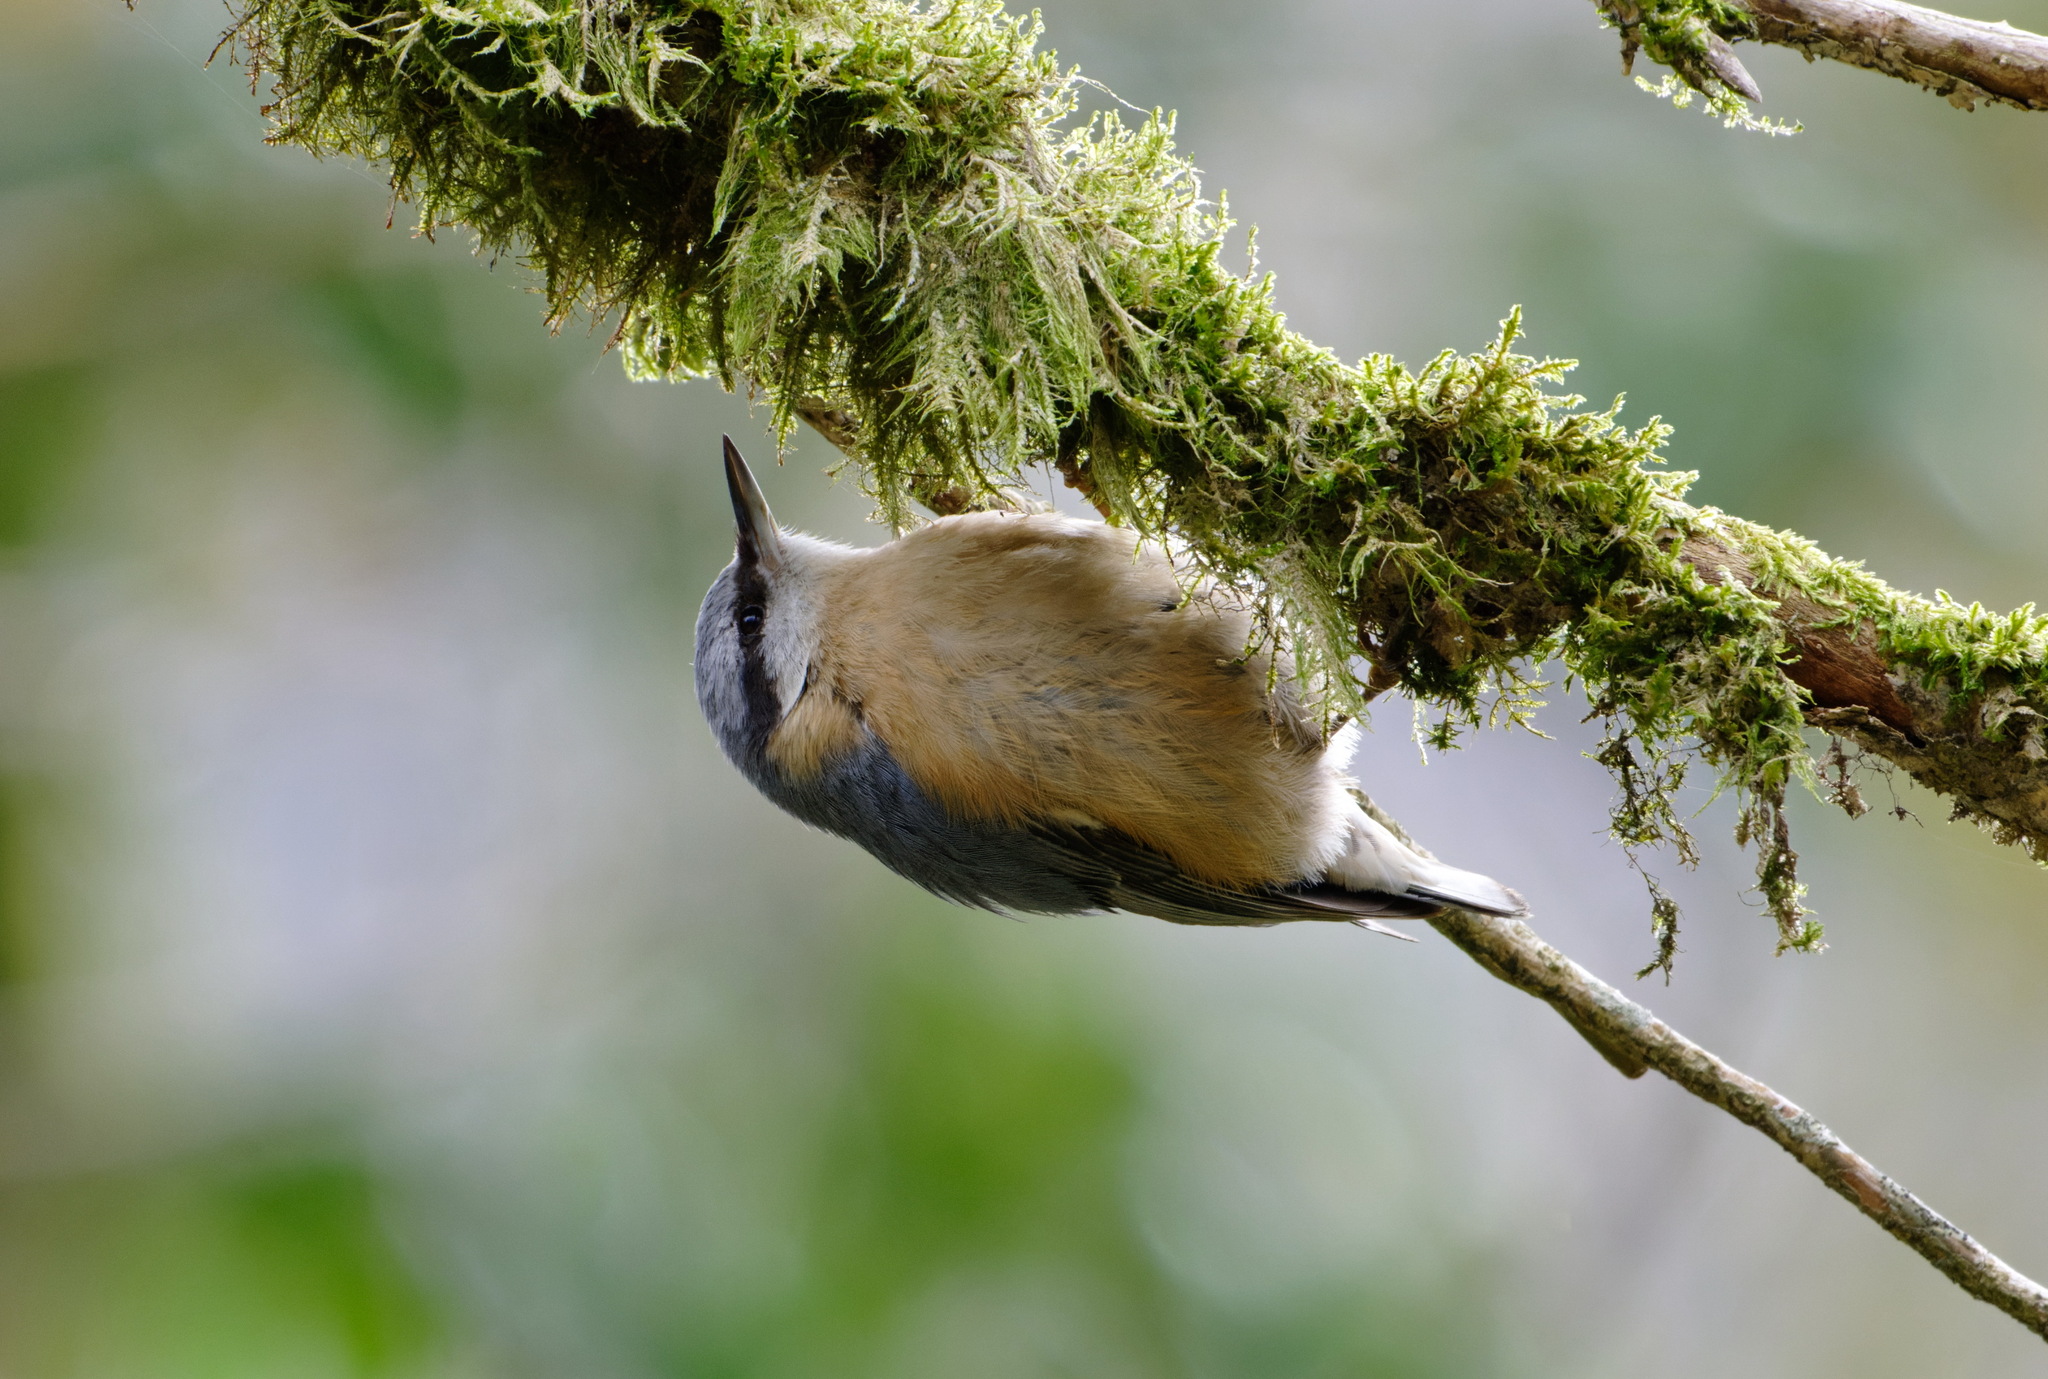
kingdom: Animalia
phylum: Chordata
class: Aves
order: Passeriformes
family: Sittidae
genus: Sitta
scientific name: Sitta europaea
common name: Eurasian nuthatch
